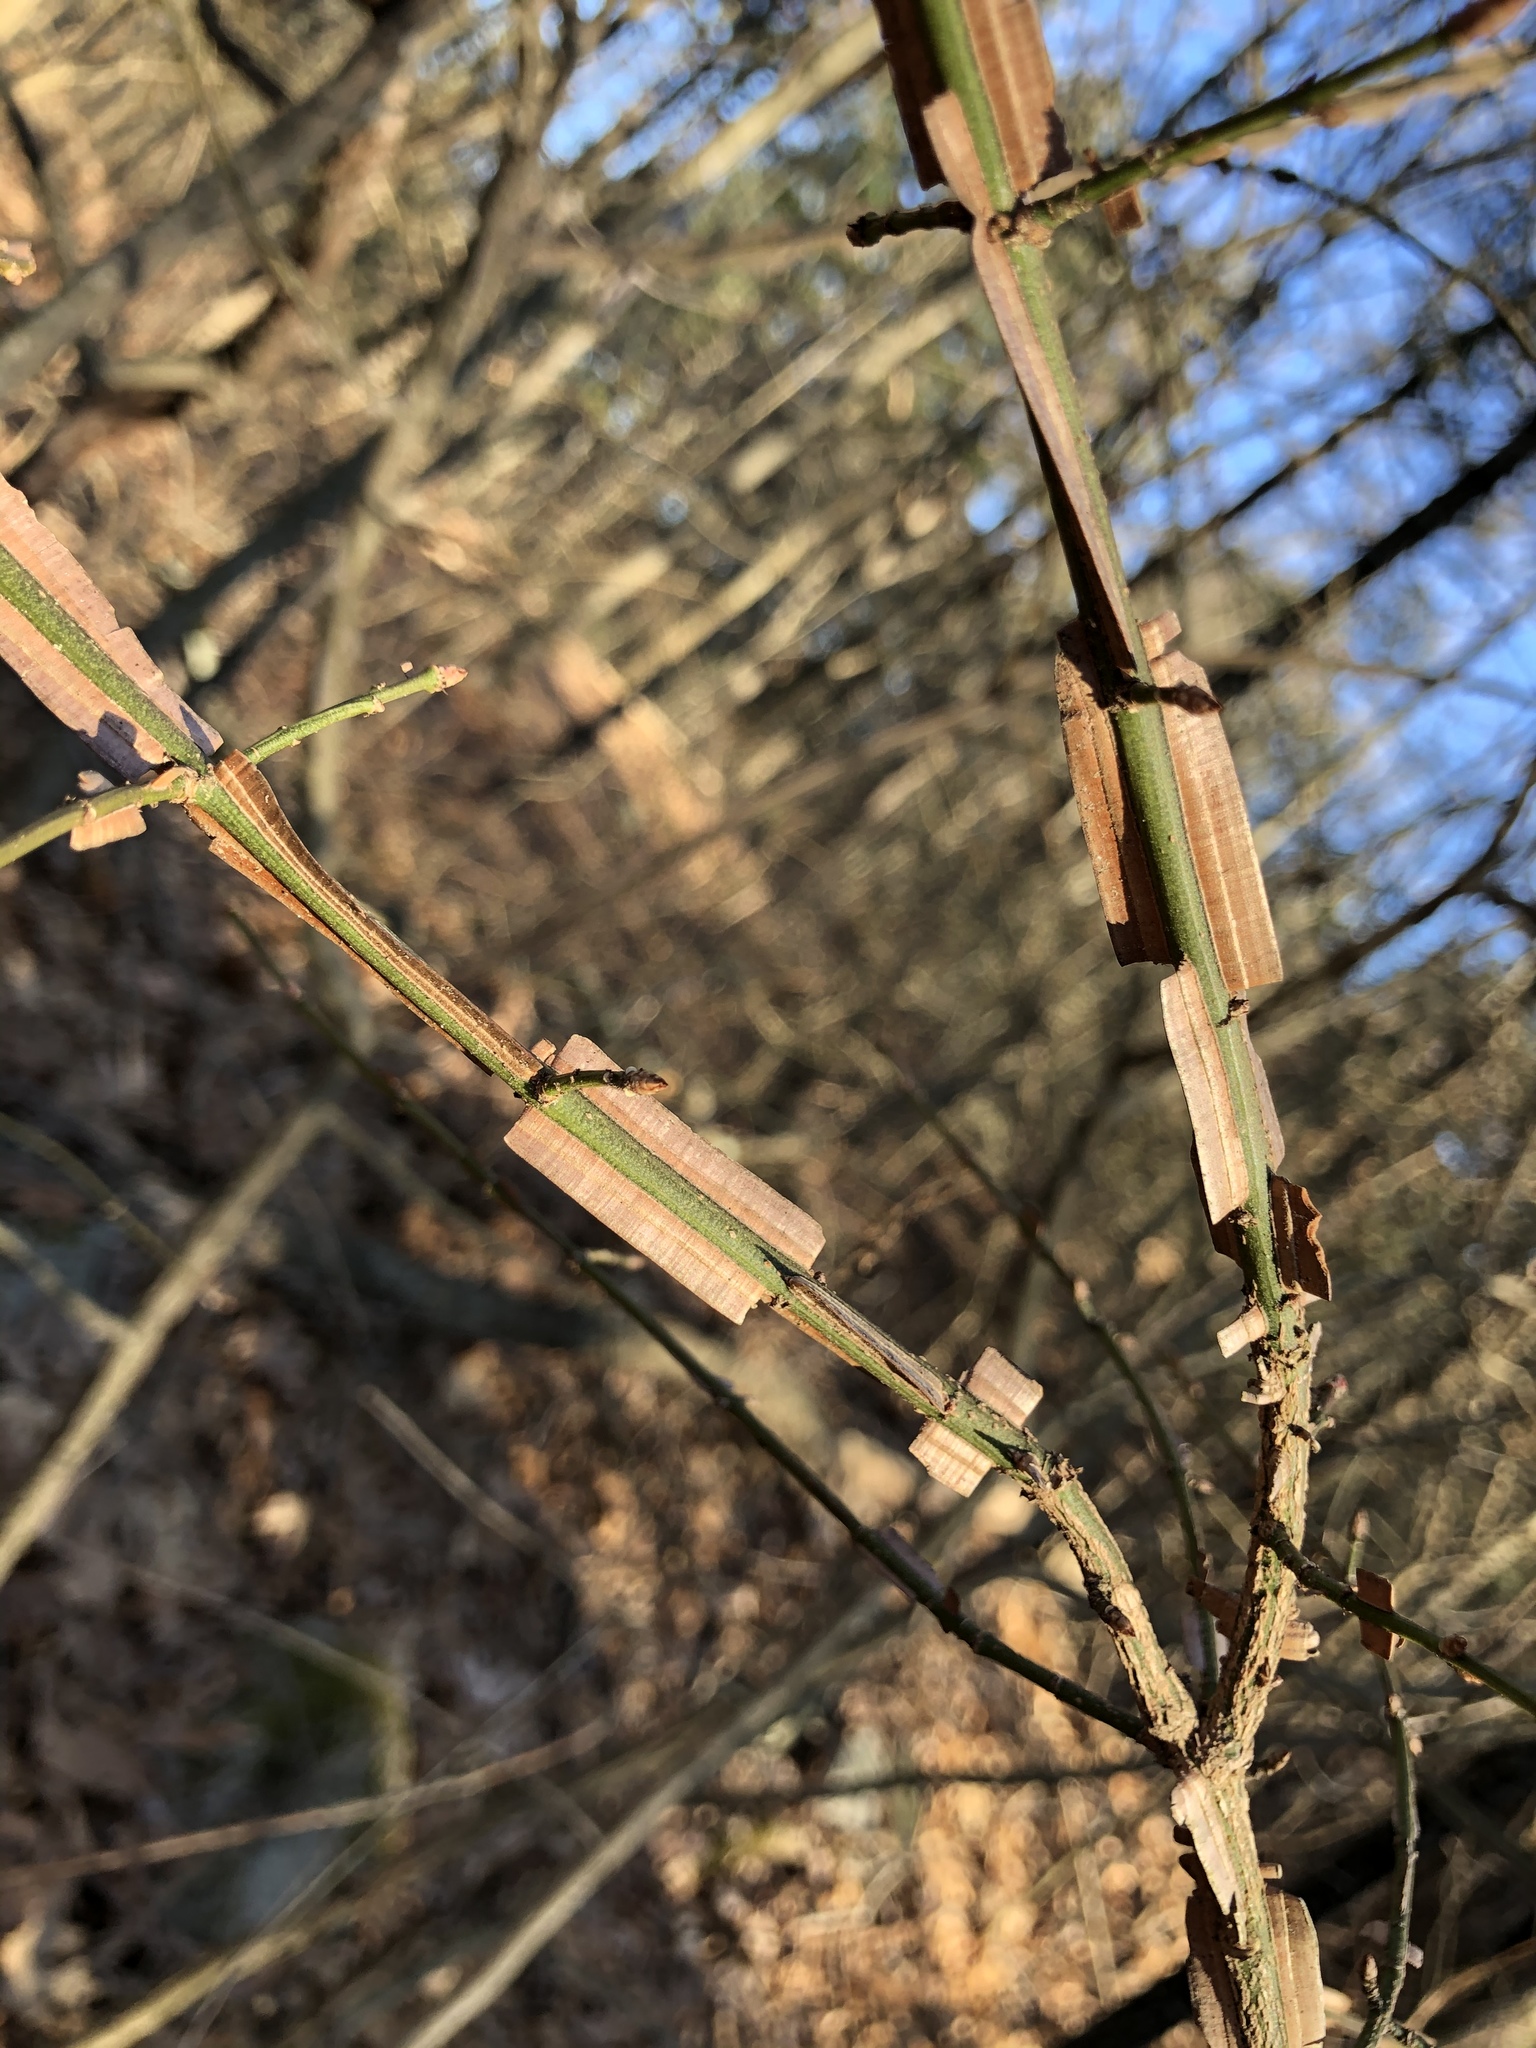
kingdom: Plantae
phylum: Tracheophyta
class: Magnoliopsida
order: Celastrales
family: Celastraceae
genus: Euonymus
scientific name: Euonymus alatus
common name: Winged euonymus
